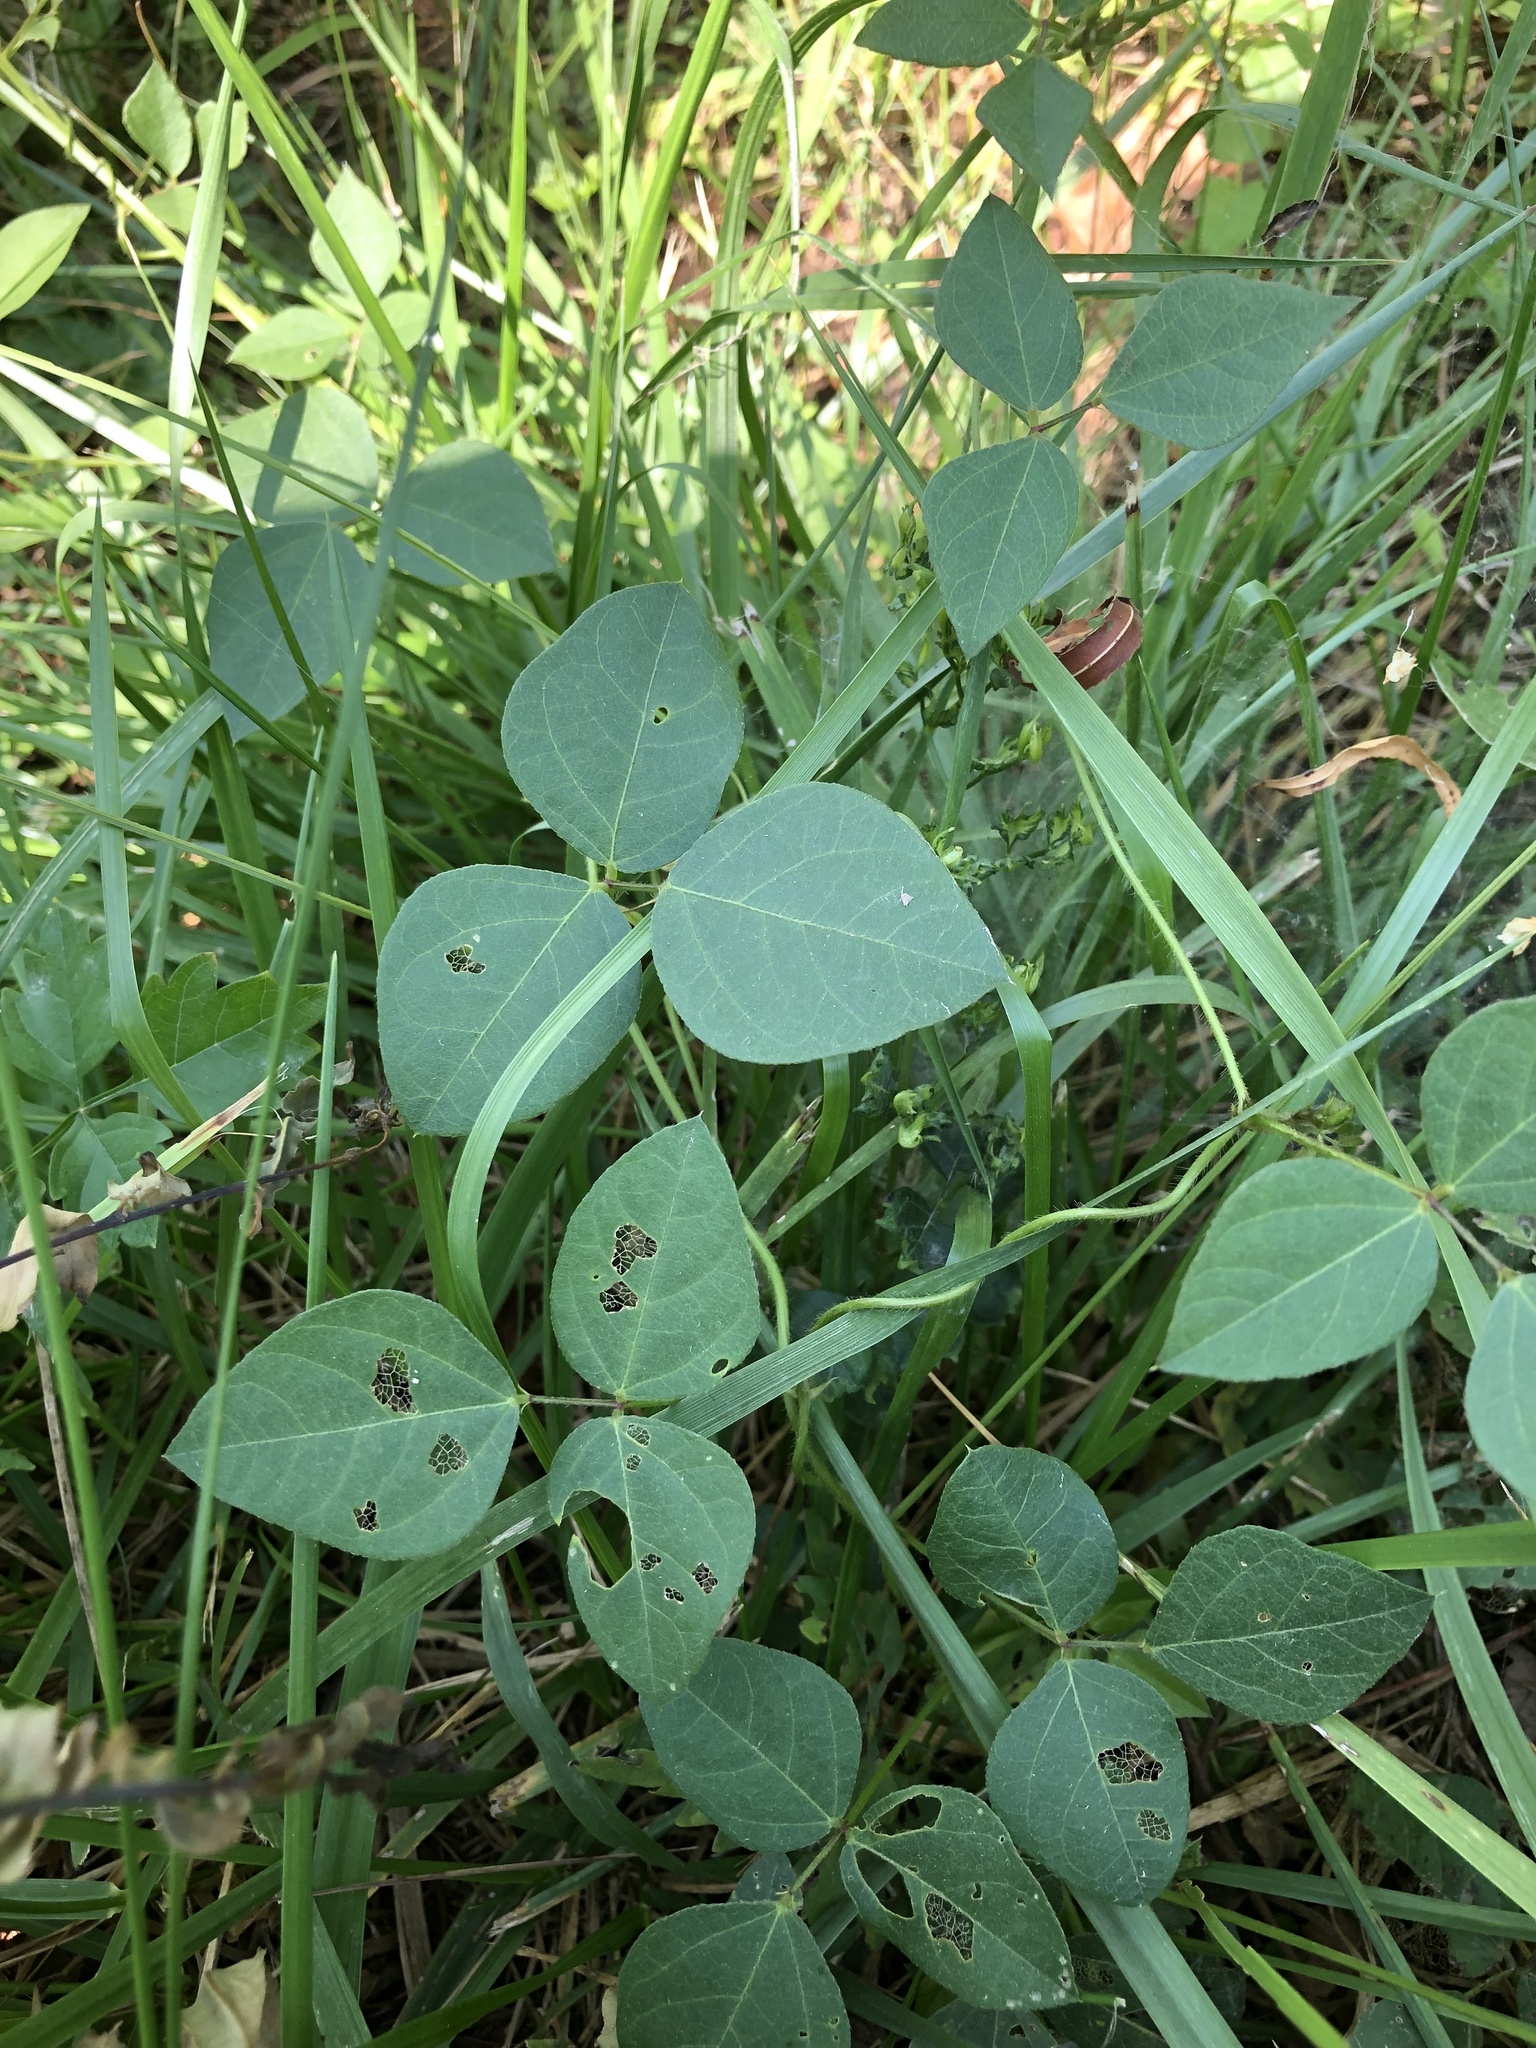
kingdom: Plantae
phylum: Tracheophyta
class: Magnoliopsida
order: Fabales
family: Fabaceae
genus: Strophostyles
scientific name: Strophostyles helvola
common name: Trailing wild bean
